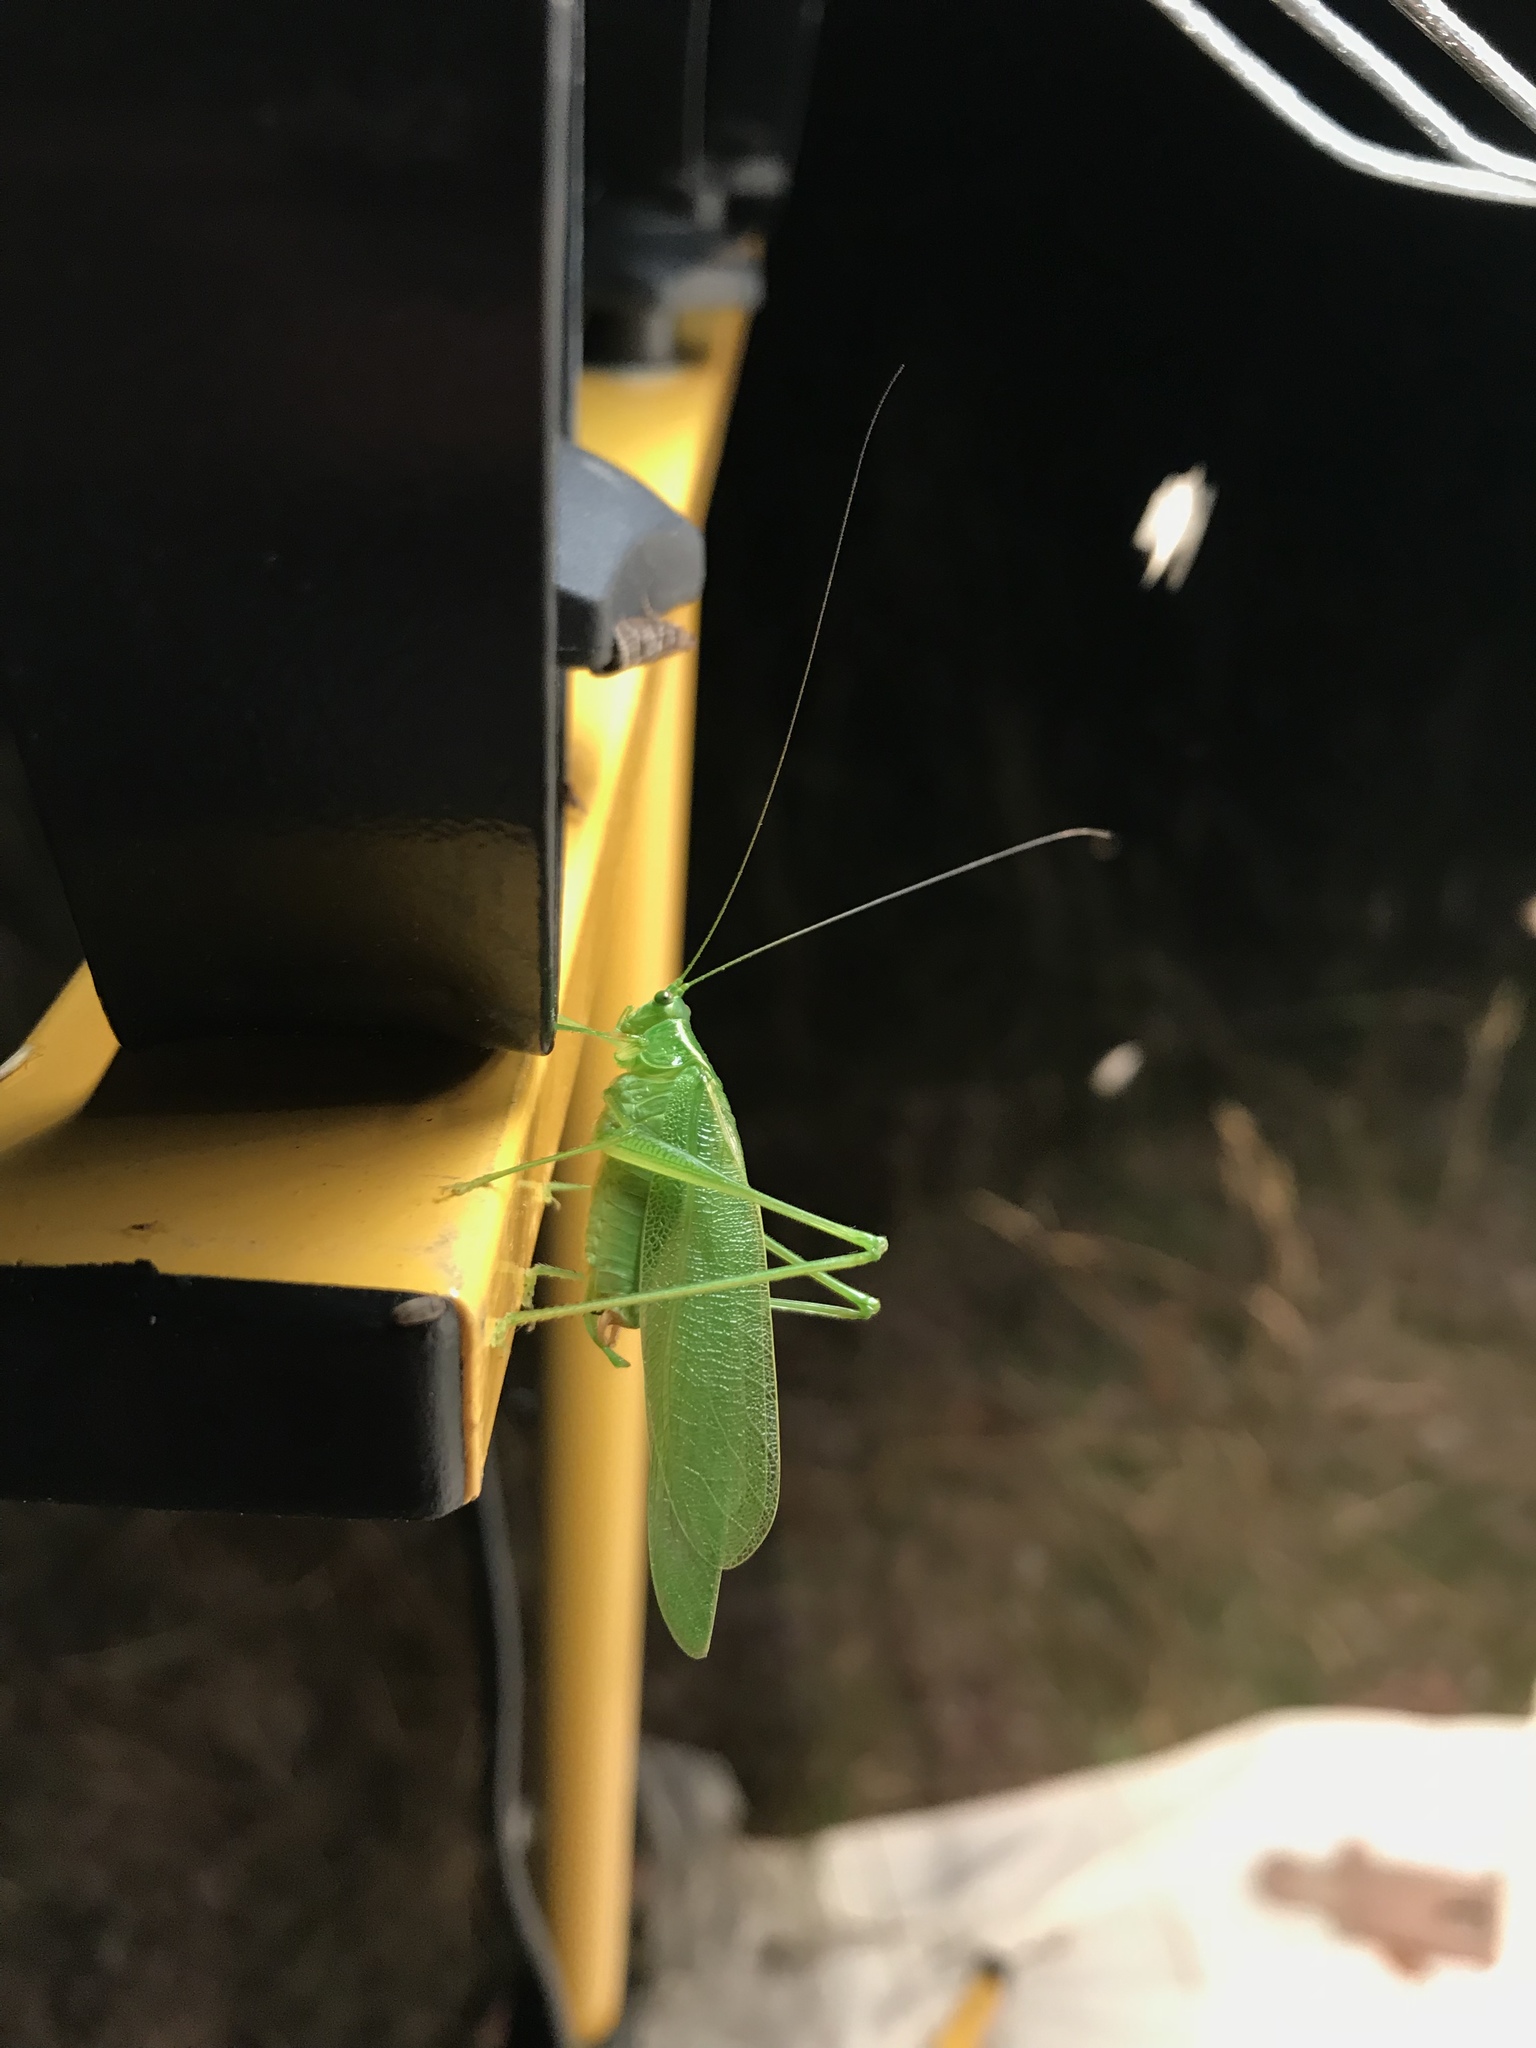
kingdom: Animalia
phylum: Arthropoda
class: Insecta
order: Orthoptera
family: Tettigoniidae
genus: Scudderia
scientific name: Scudderia septentrionalis
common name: Northern bush-katydid
